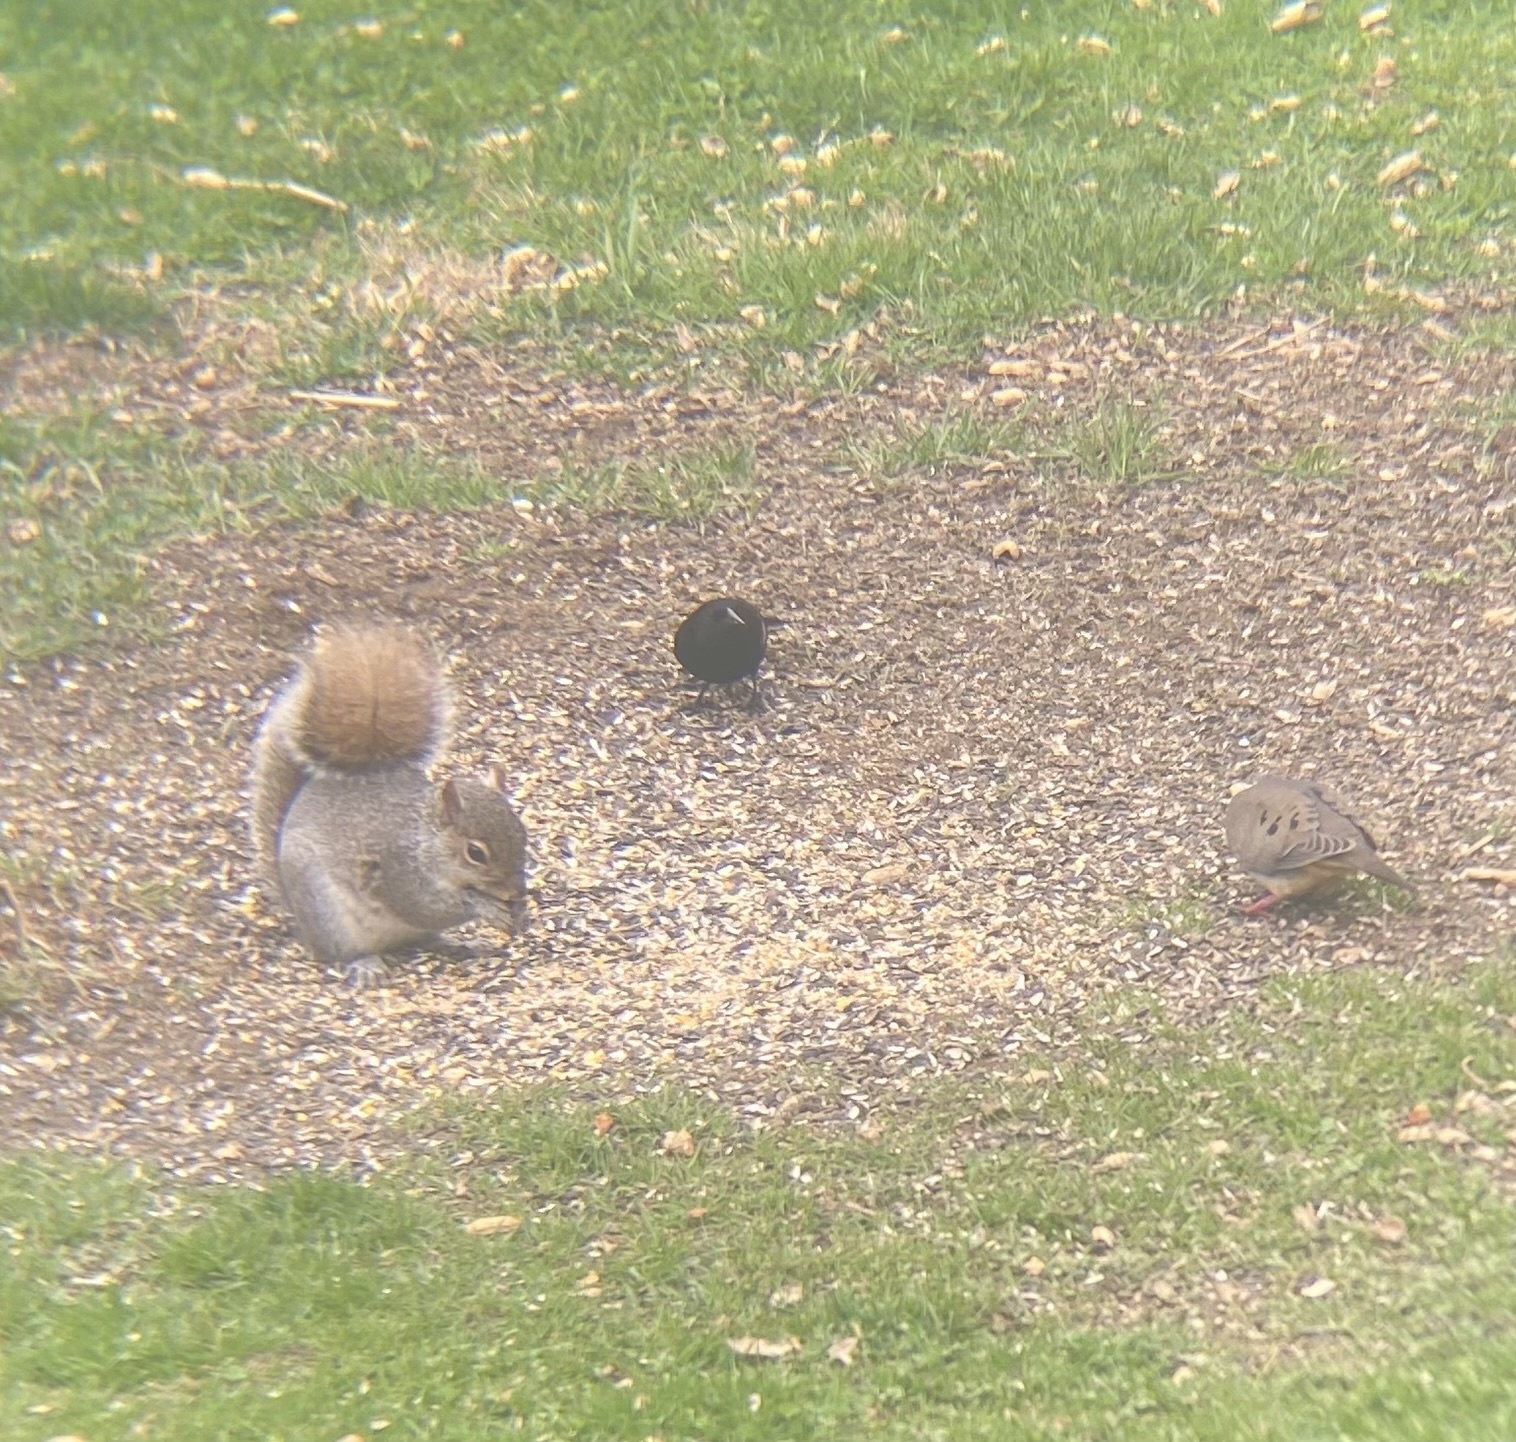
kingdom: Animalia
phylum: Chordata
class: Aves
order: Passeriformes
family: Icteridae
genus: Agelaius
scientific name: Agelaius phoeniceus
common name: Red-winged blackbird
